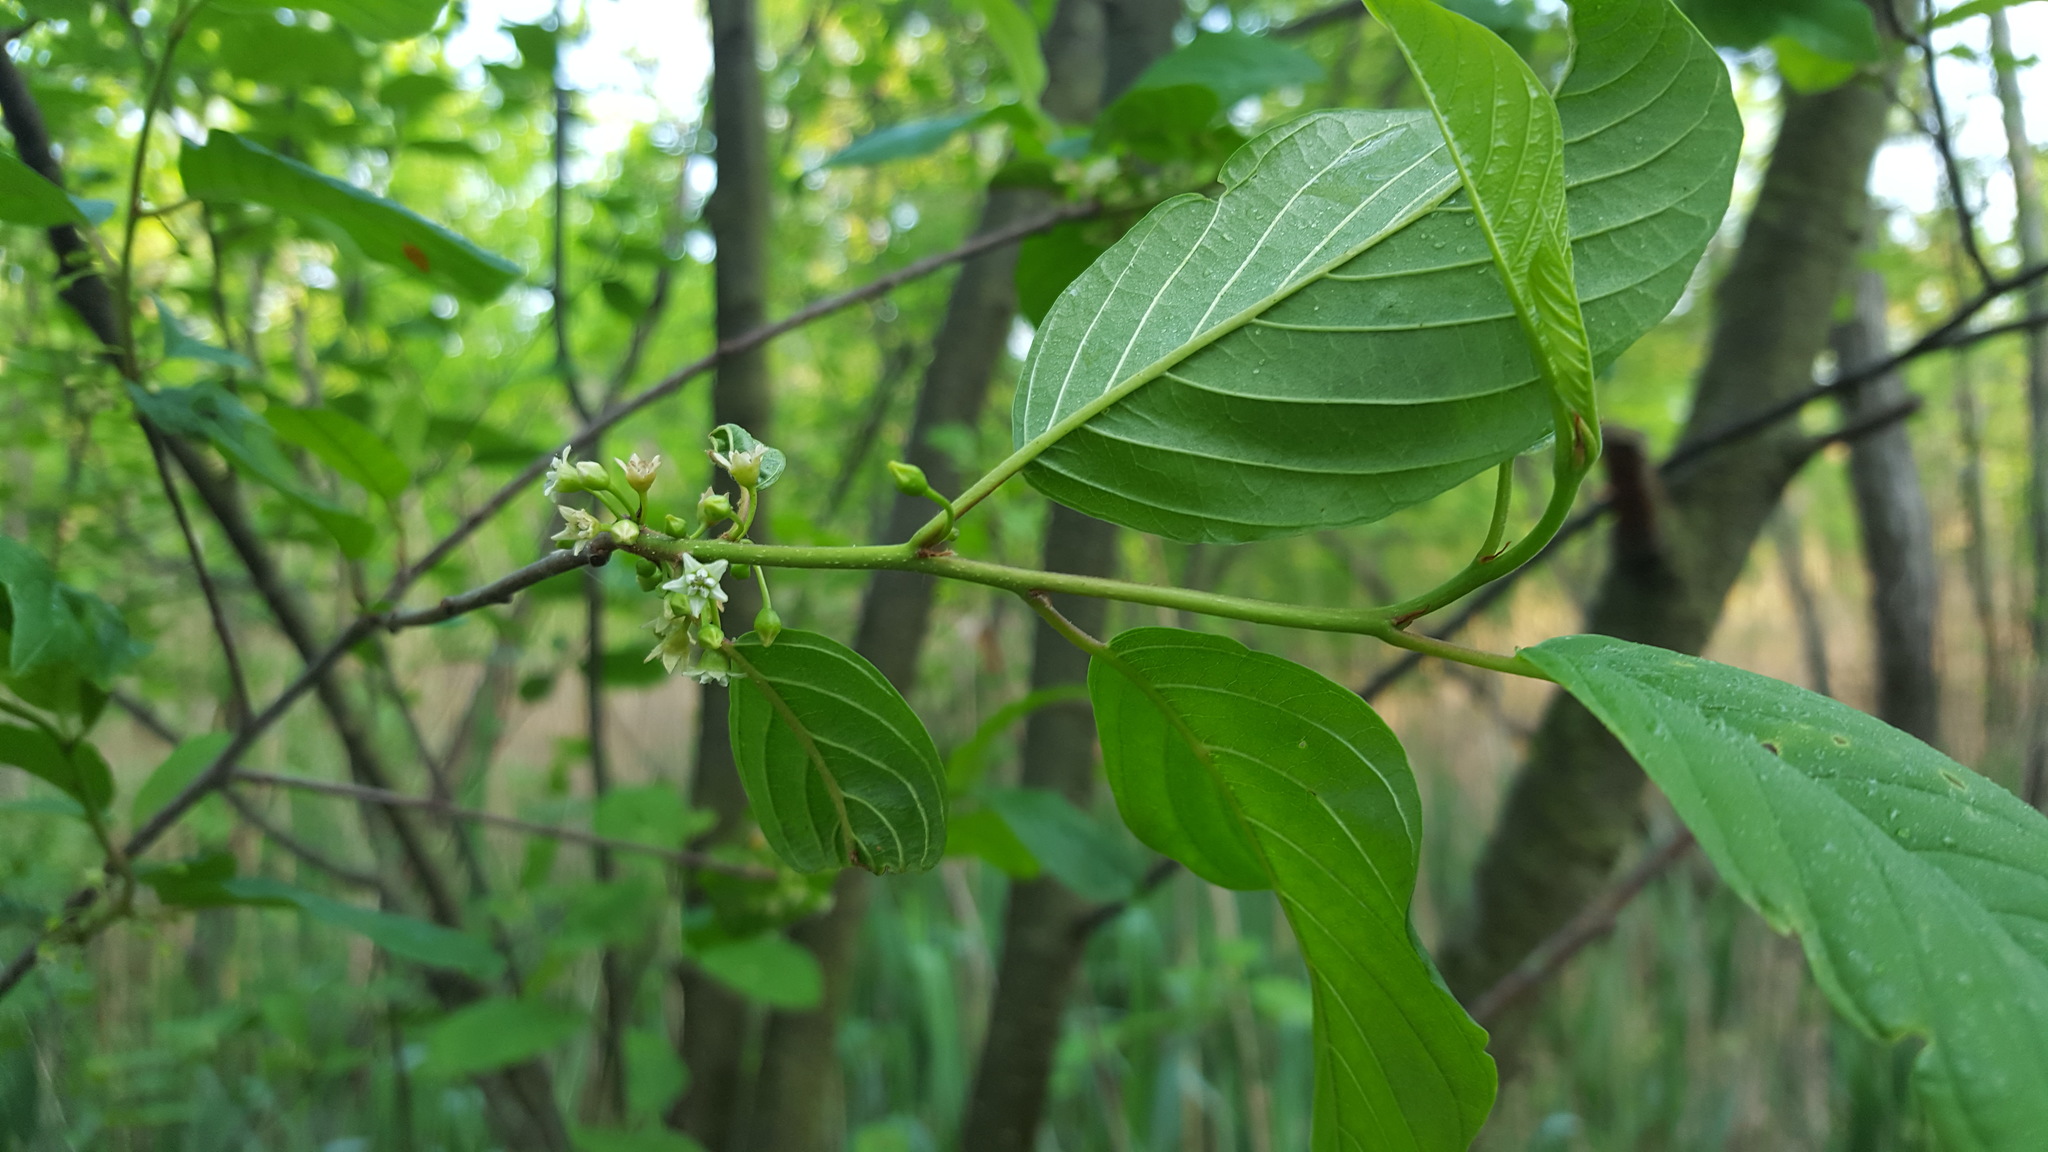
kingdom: Plantae
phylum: Tracheophyta
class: Magnoliopsida
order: Rosales
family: Rhamnaceae
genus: Frangula
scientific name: Frangula alnus
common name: Alder buckthorn
